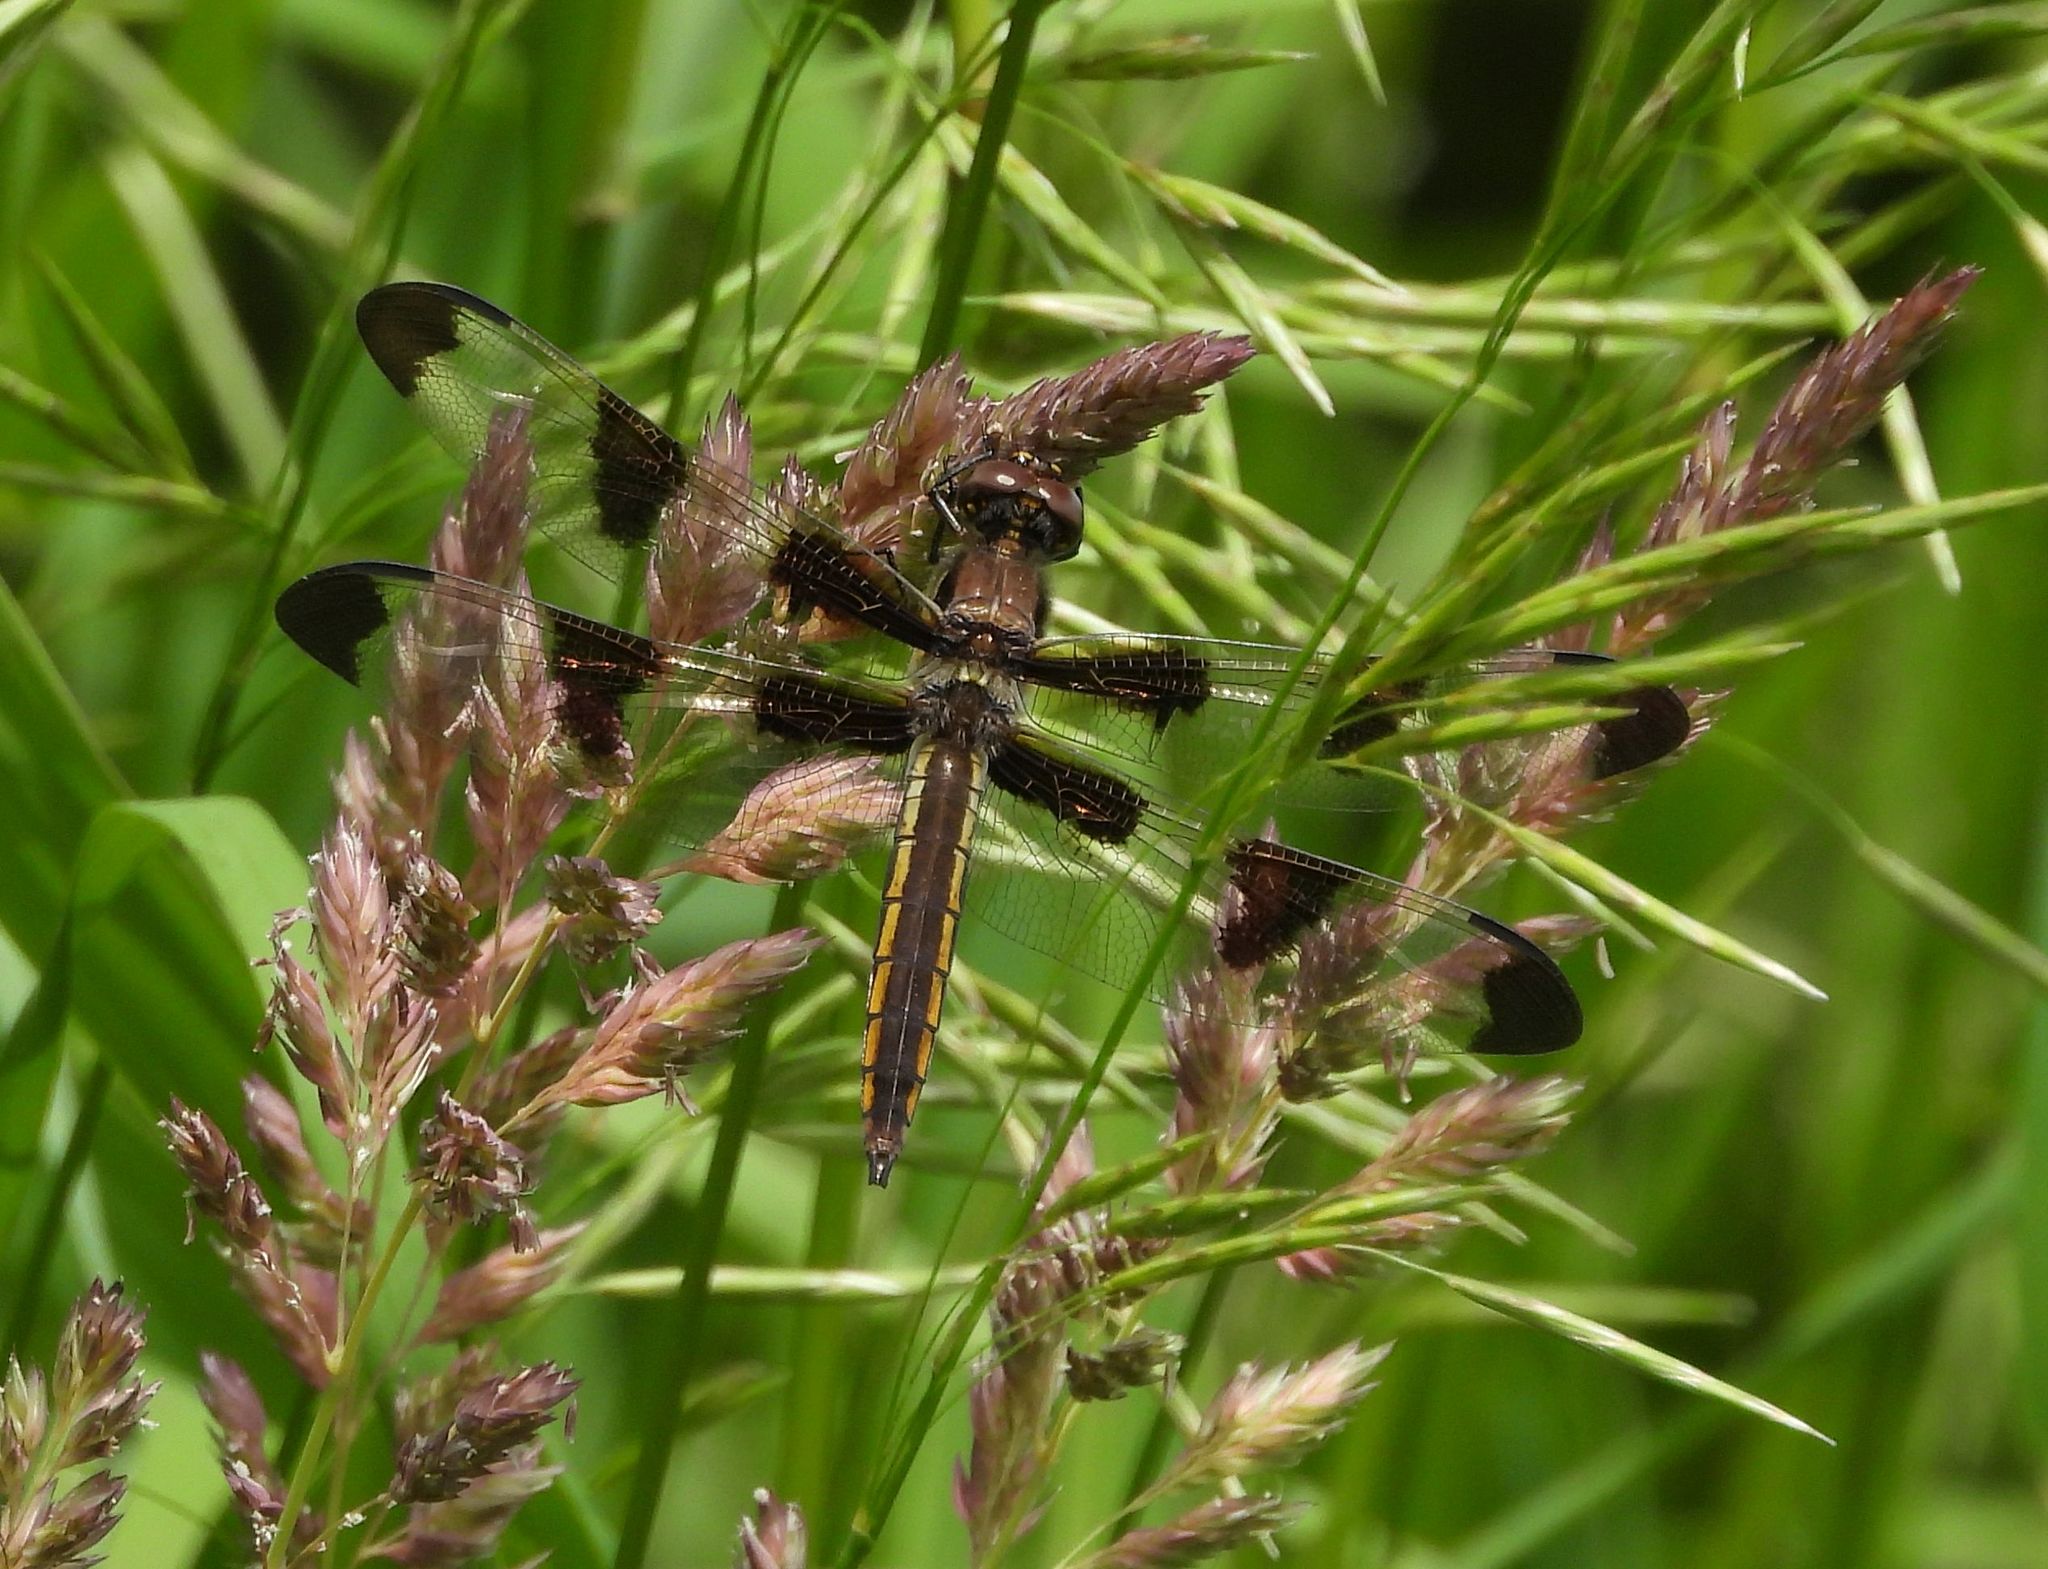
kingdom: Animalia
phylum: Arthropoda
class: Insecta
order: Odonata
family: Libellulidae
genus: Libellula
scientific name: Libellula pulchella
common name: Twelve-spotted skimmer
